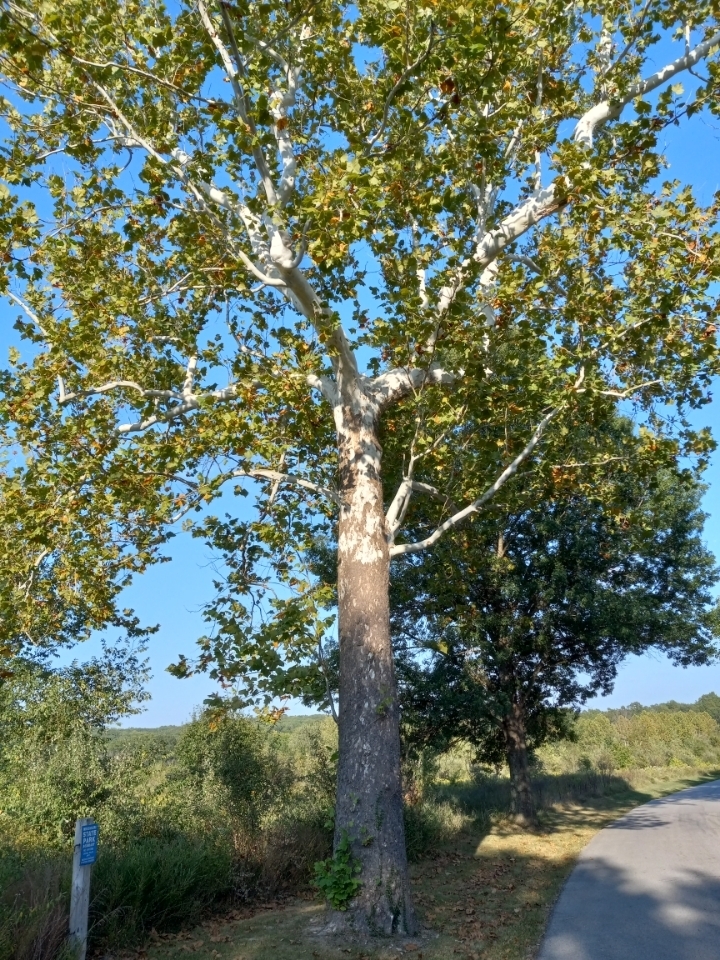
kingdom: Plantae
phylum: Tracheophyta
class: Magnoliopsida
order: Proteales
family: Platanaceae
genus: Platanus
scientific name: Platanus occidentalis
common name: American sycamore
